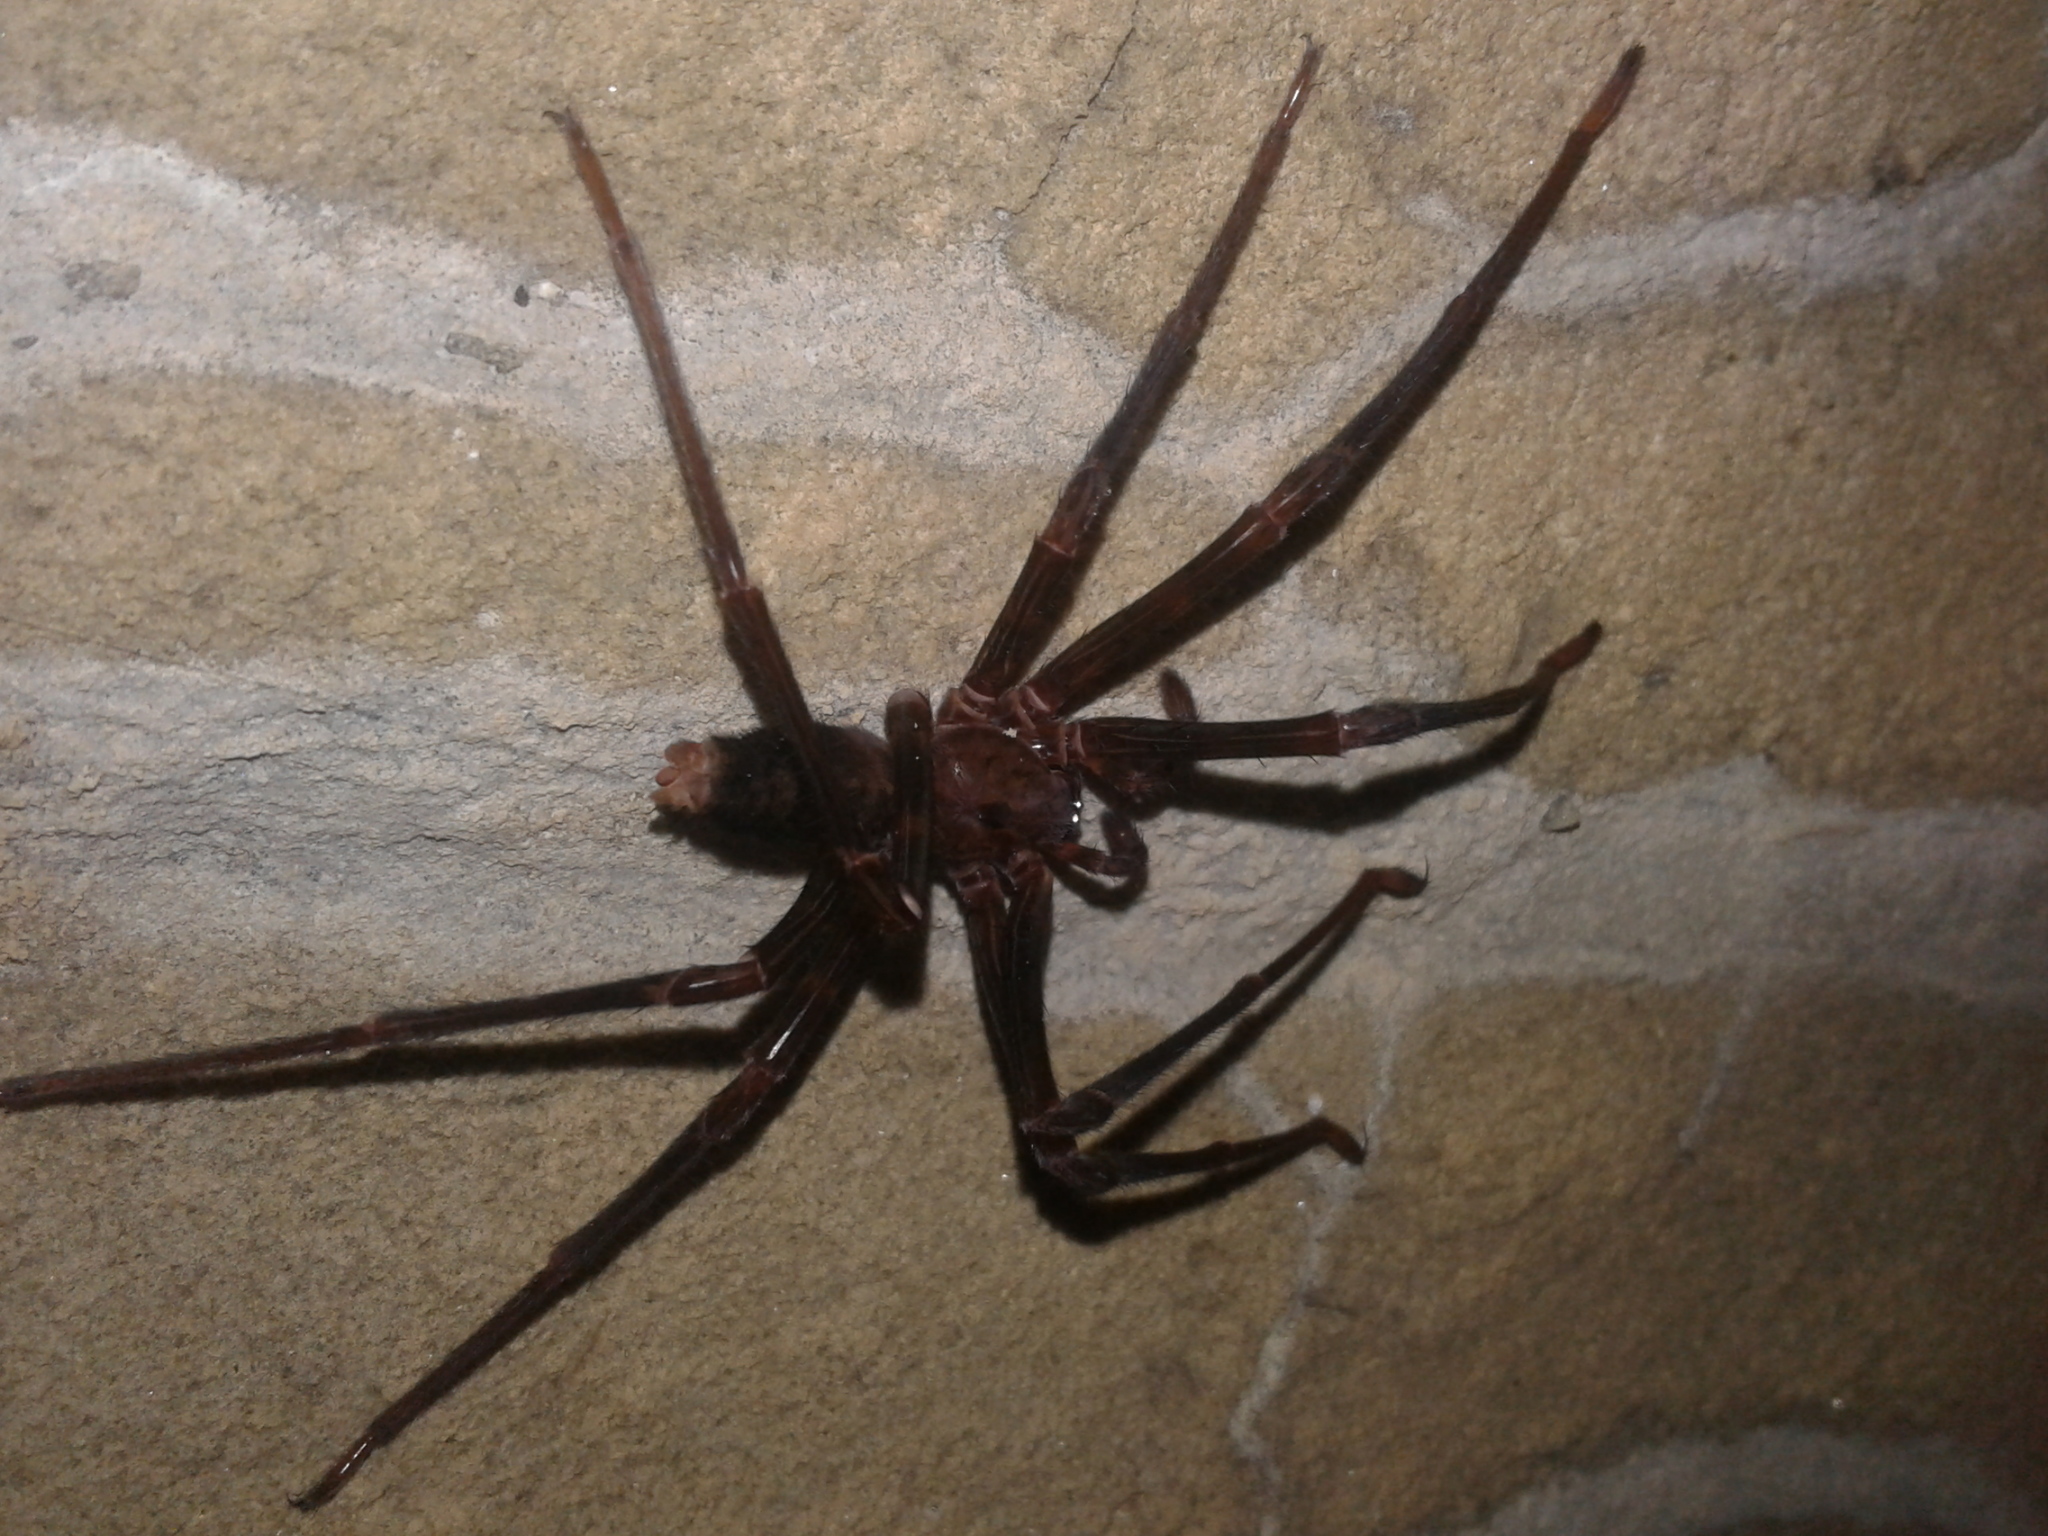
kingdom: Animalia
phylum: Arthropoda
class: Arachnida
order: Araneae
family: Gradungulidae
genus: Spelungula
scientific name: Spelungula cavernicola
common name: Nelson cave spider
